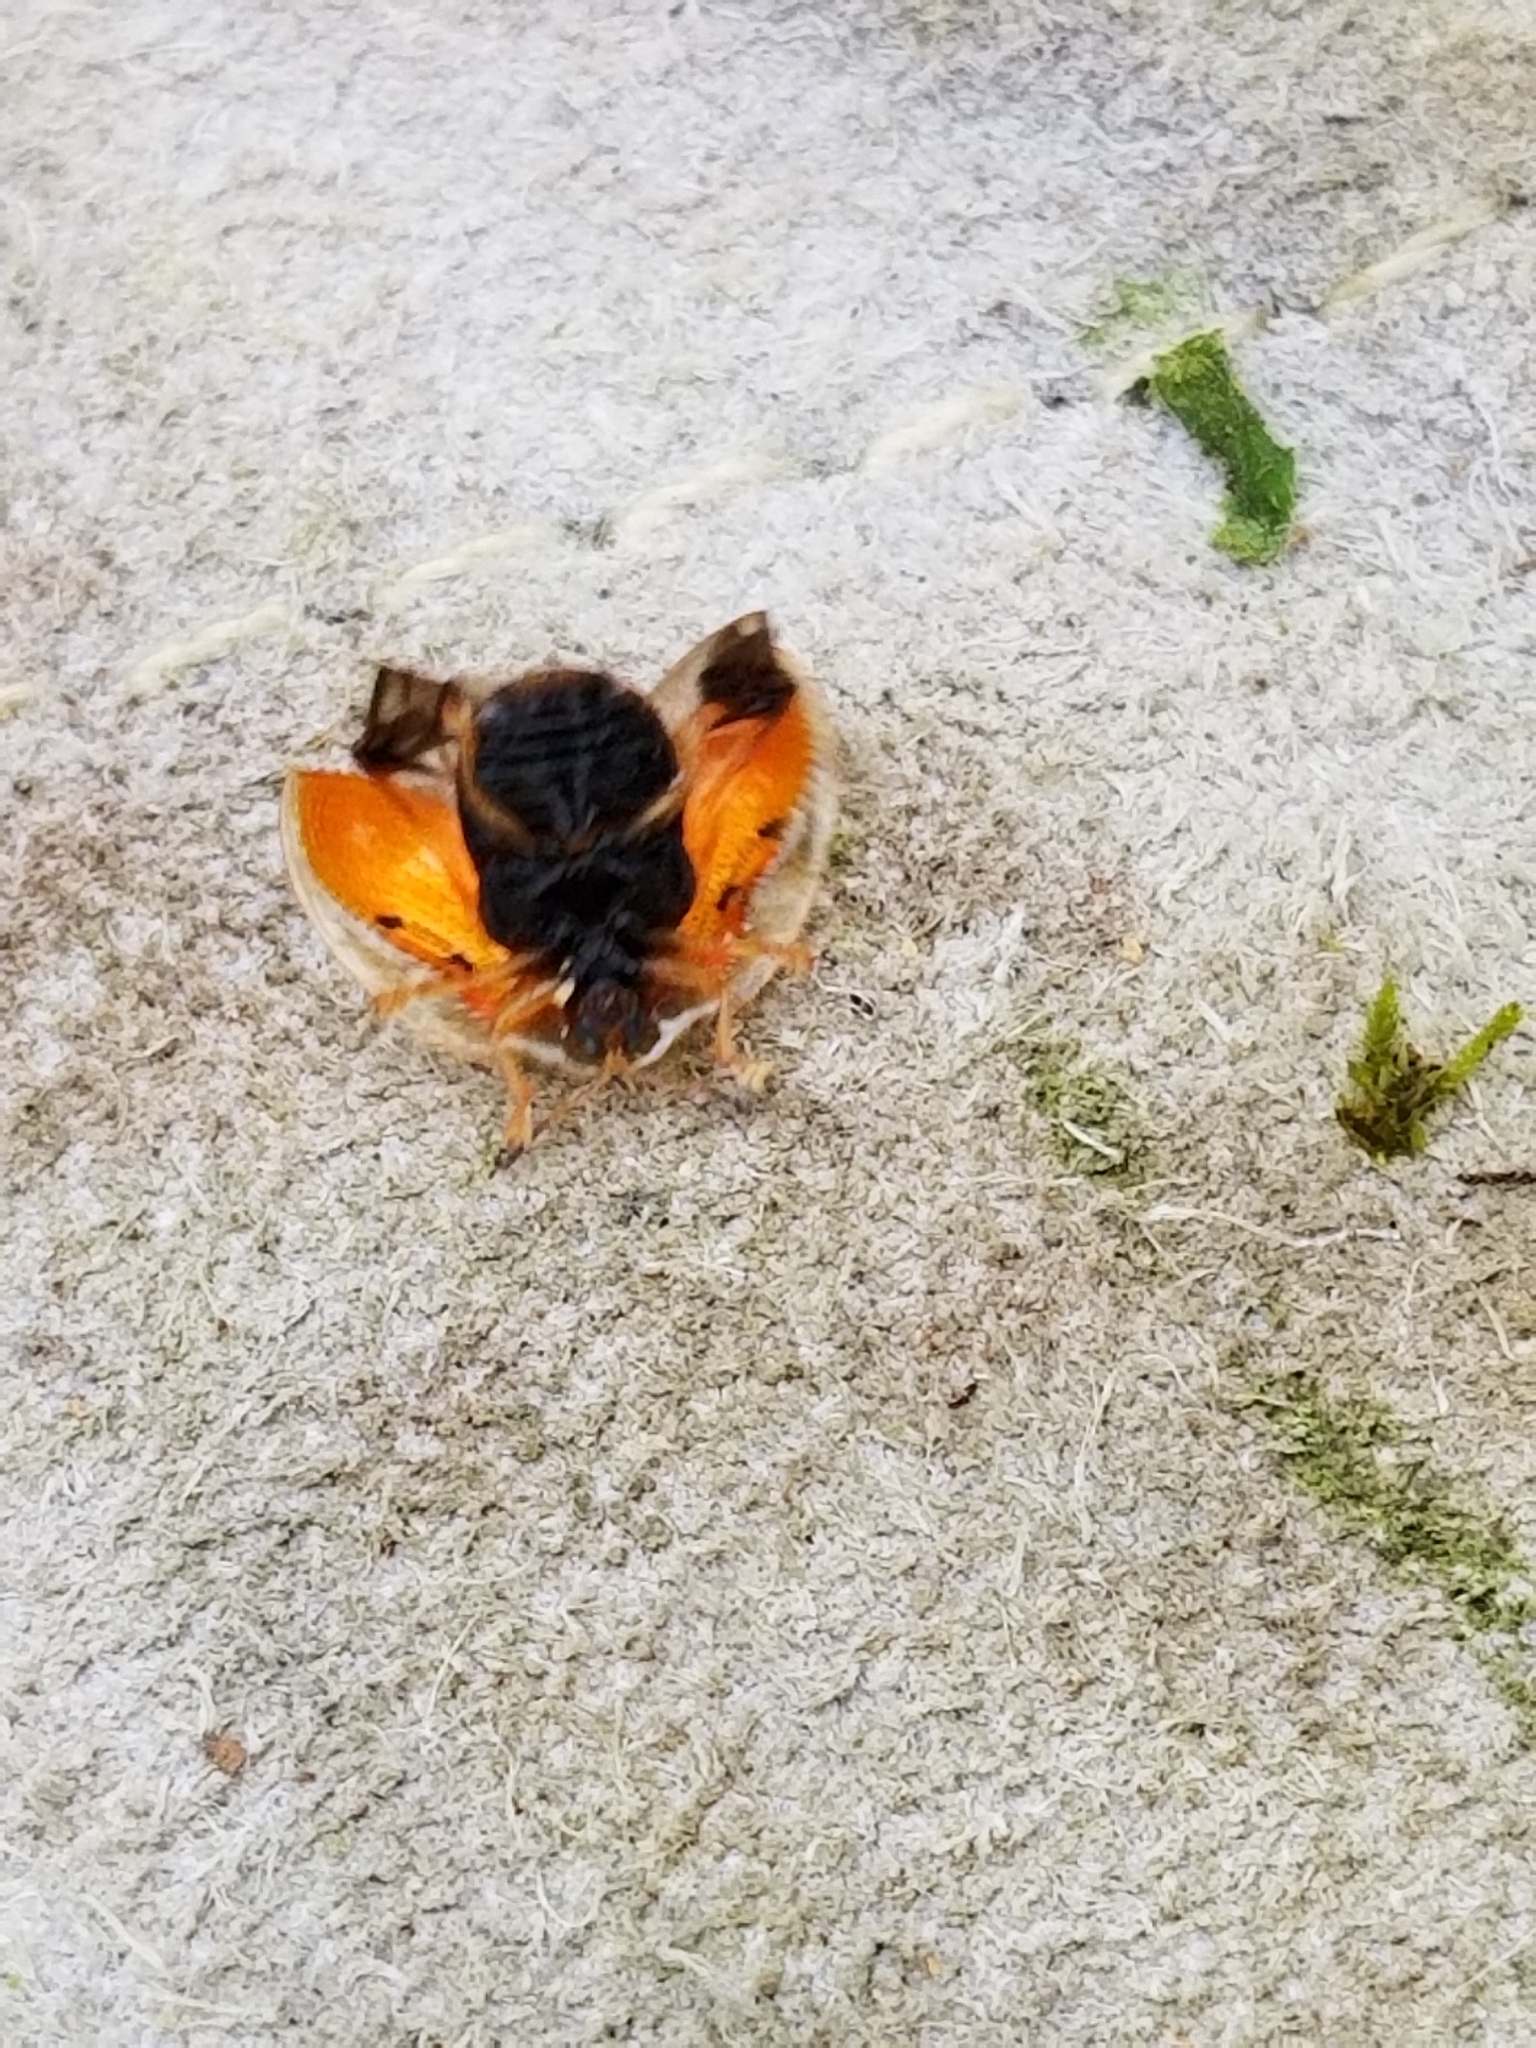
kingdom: Animalia
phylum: Arthropoda
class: Insecta
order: Coleoptera
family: Chrysomelidae
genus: Charidotella
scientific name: Charidotella sexpunctata
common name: Golden tortoise beetle
